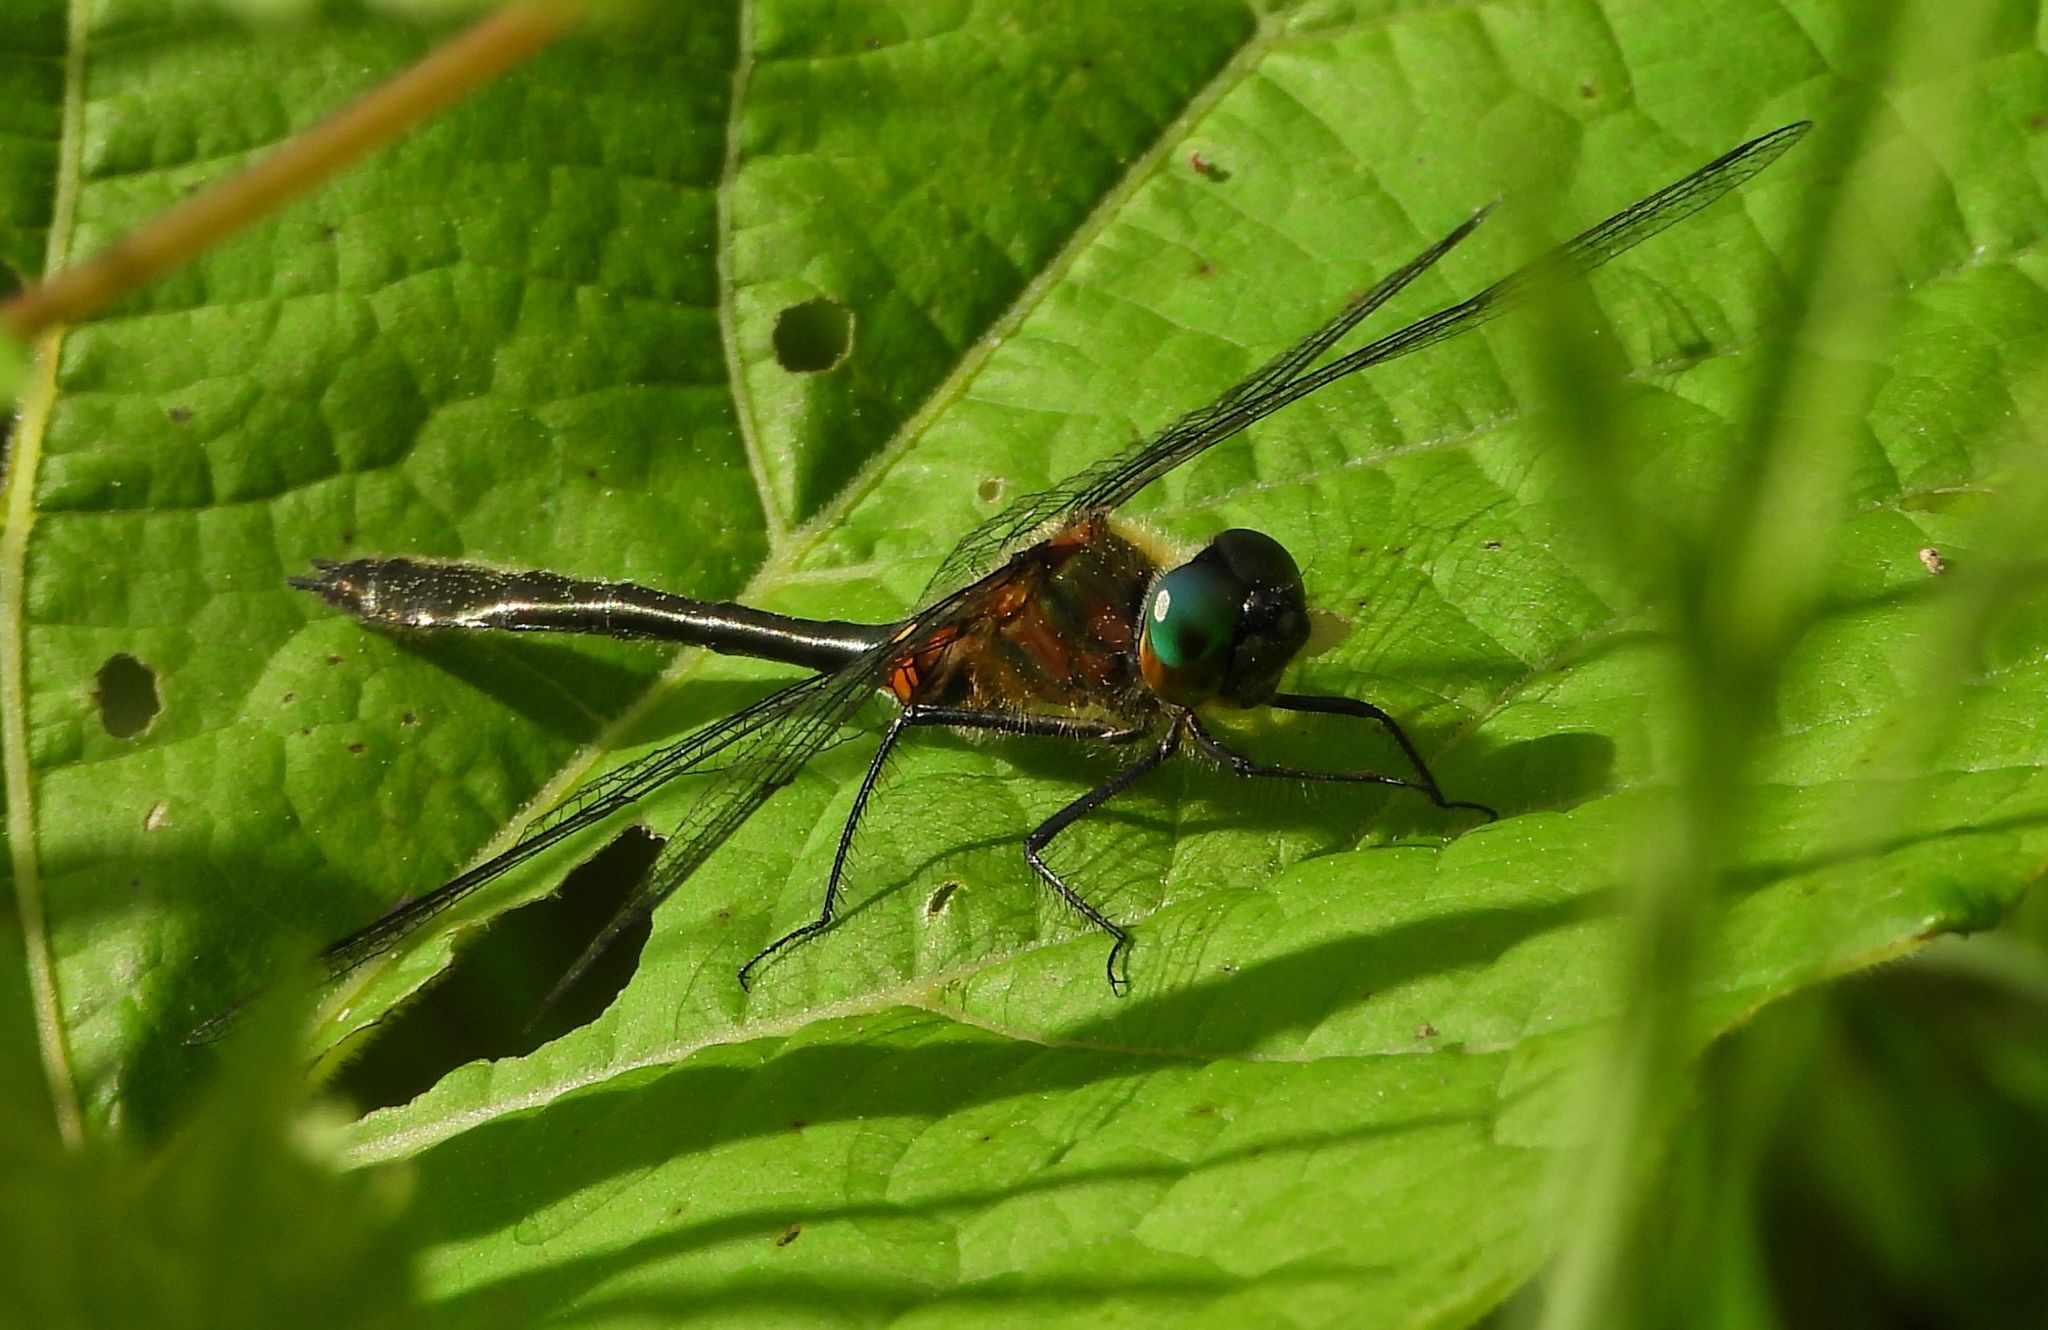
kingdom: Animalia
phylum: Arthropoda
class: Insecta
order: Odonata
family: Corduliidae
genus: Dorocordulia
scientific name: Dorocordulia libera
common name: Racket-tailed emerald
